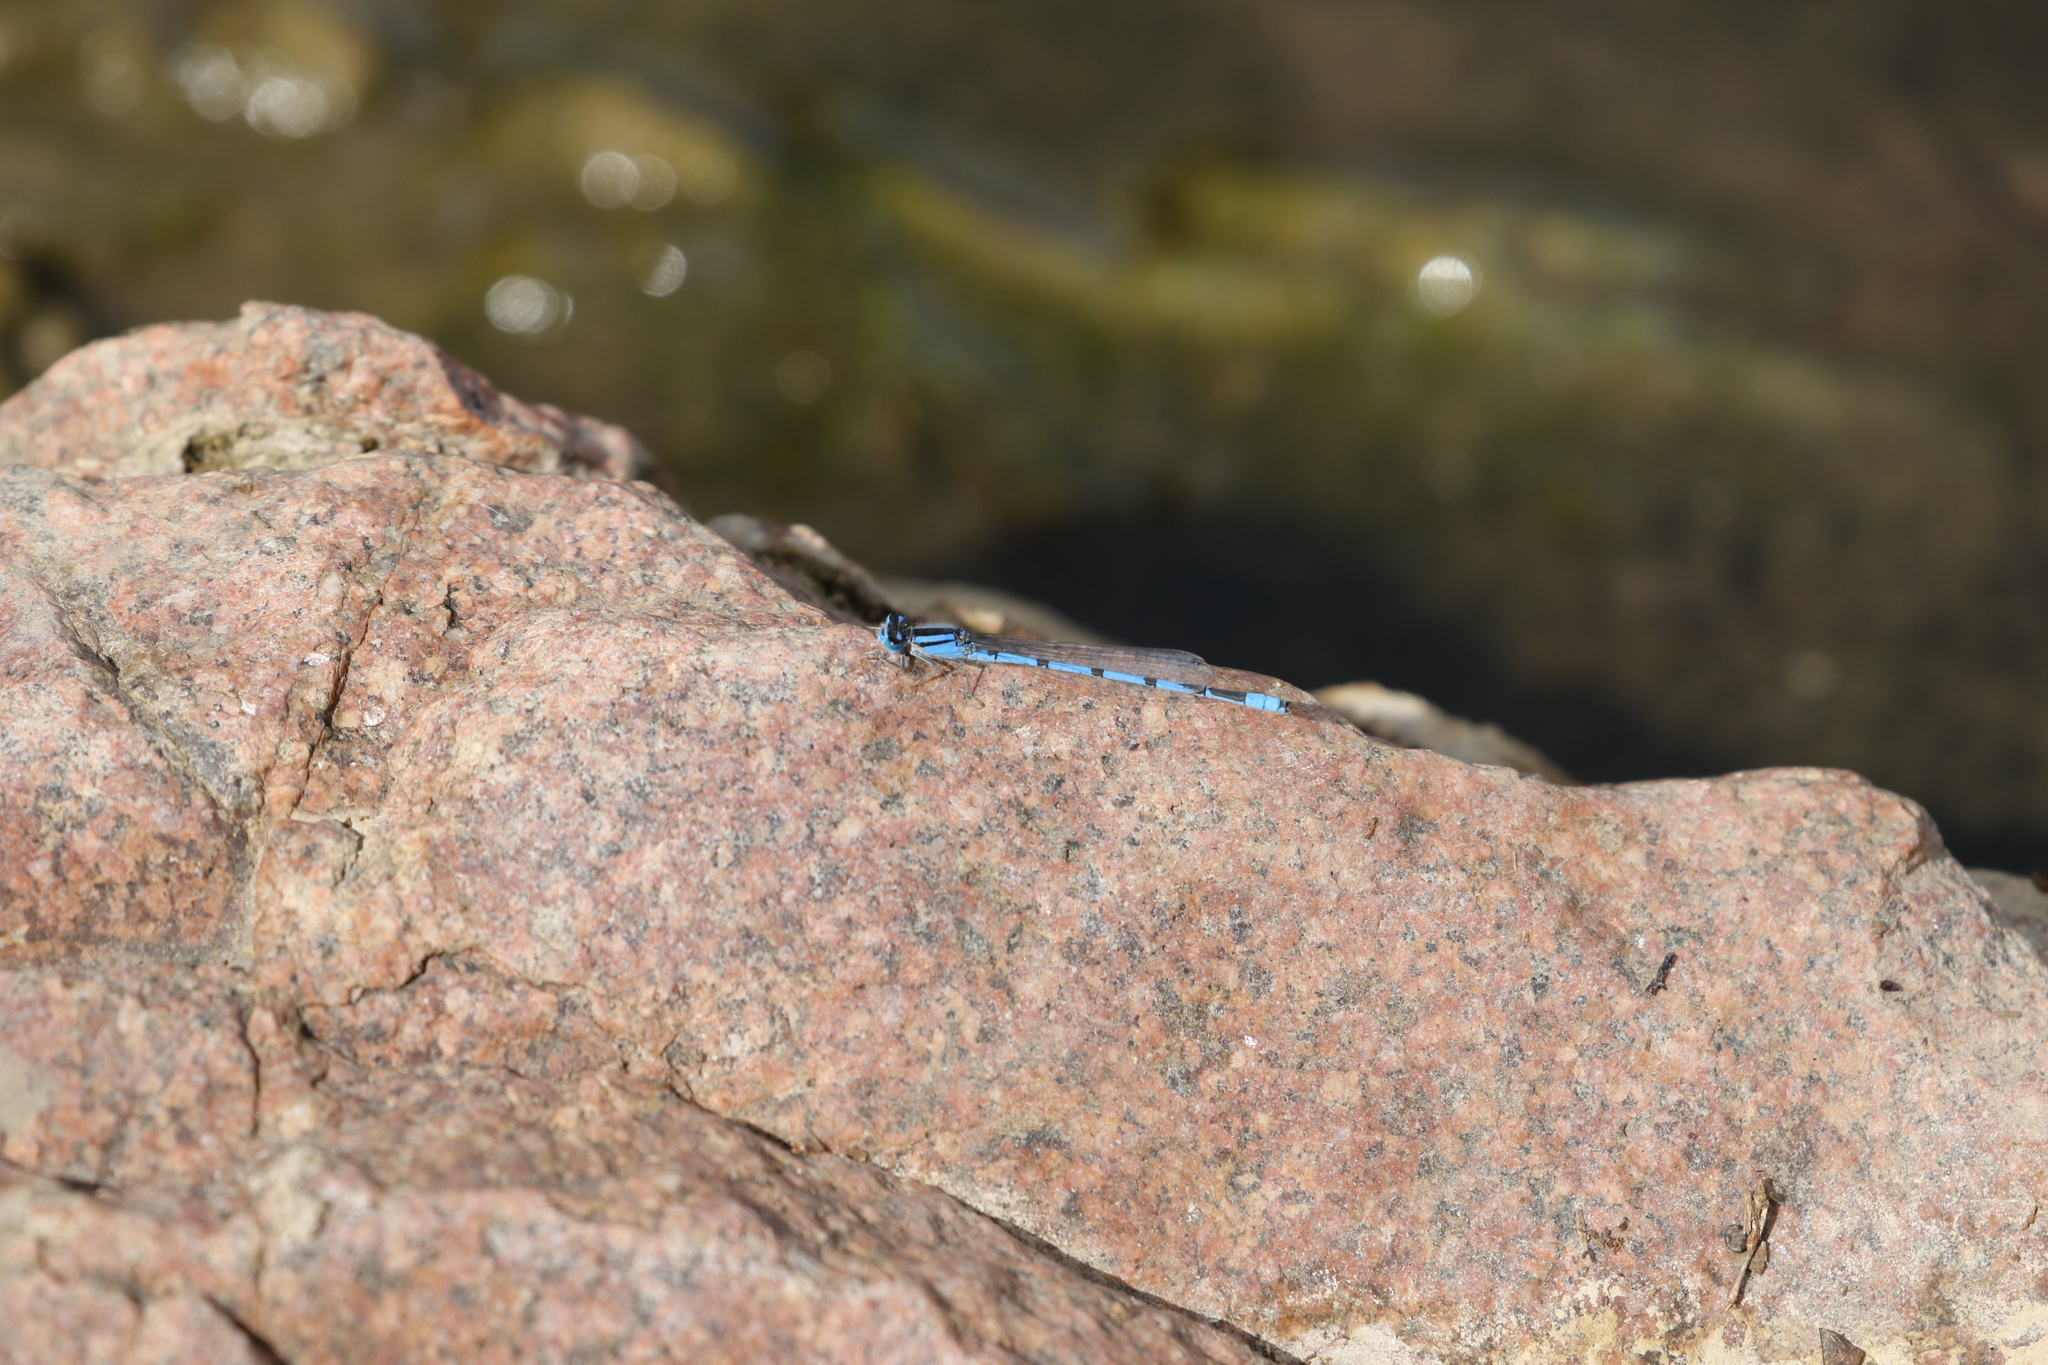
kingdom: Animalia
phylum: Arthropoda
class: Insecta
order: Odonata
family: Coenagrionidae
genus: Enallagma
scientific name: Enallagma civile
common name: Damselfly
